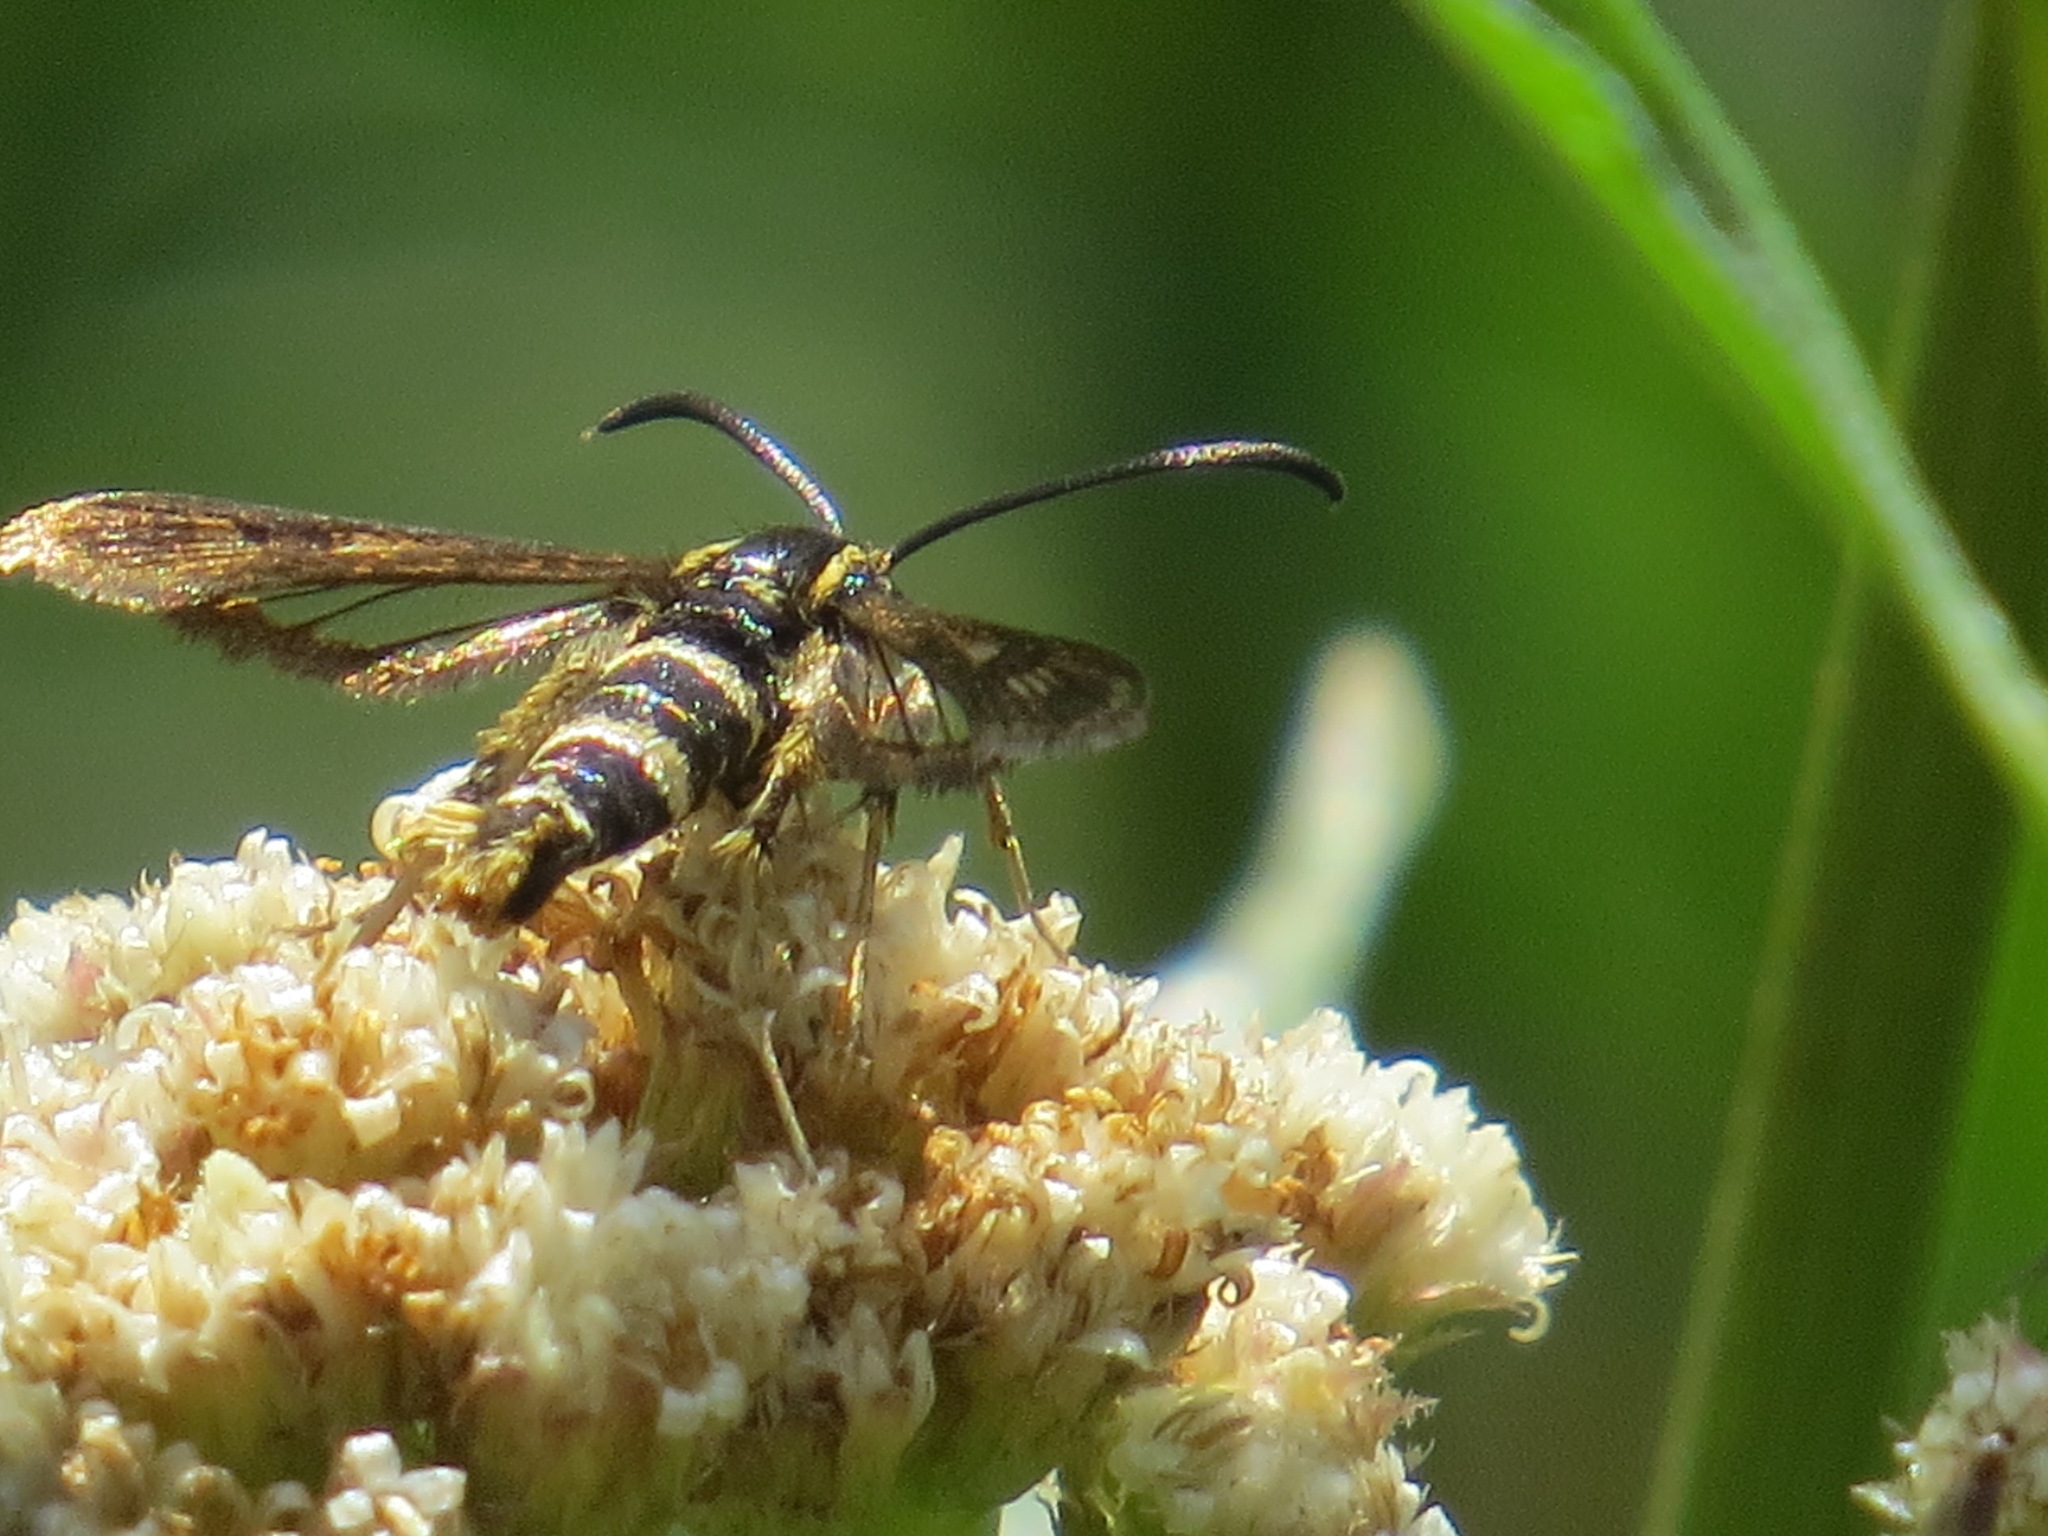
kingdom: Animalia
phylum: Arthropoda
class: Insecta
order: Lepidoptera
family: Sesiidae
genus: Synanthedon
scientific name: Synanthedon bibionipennis
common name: Strawberry crown moth
